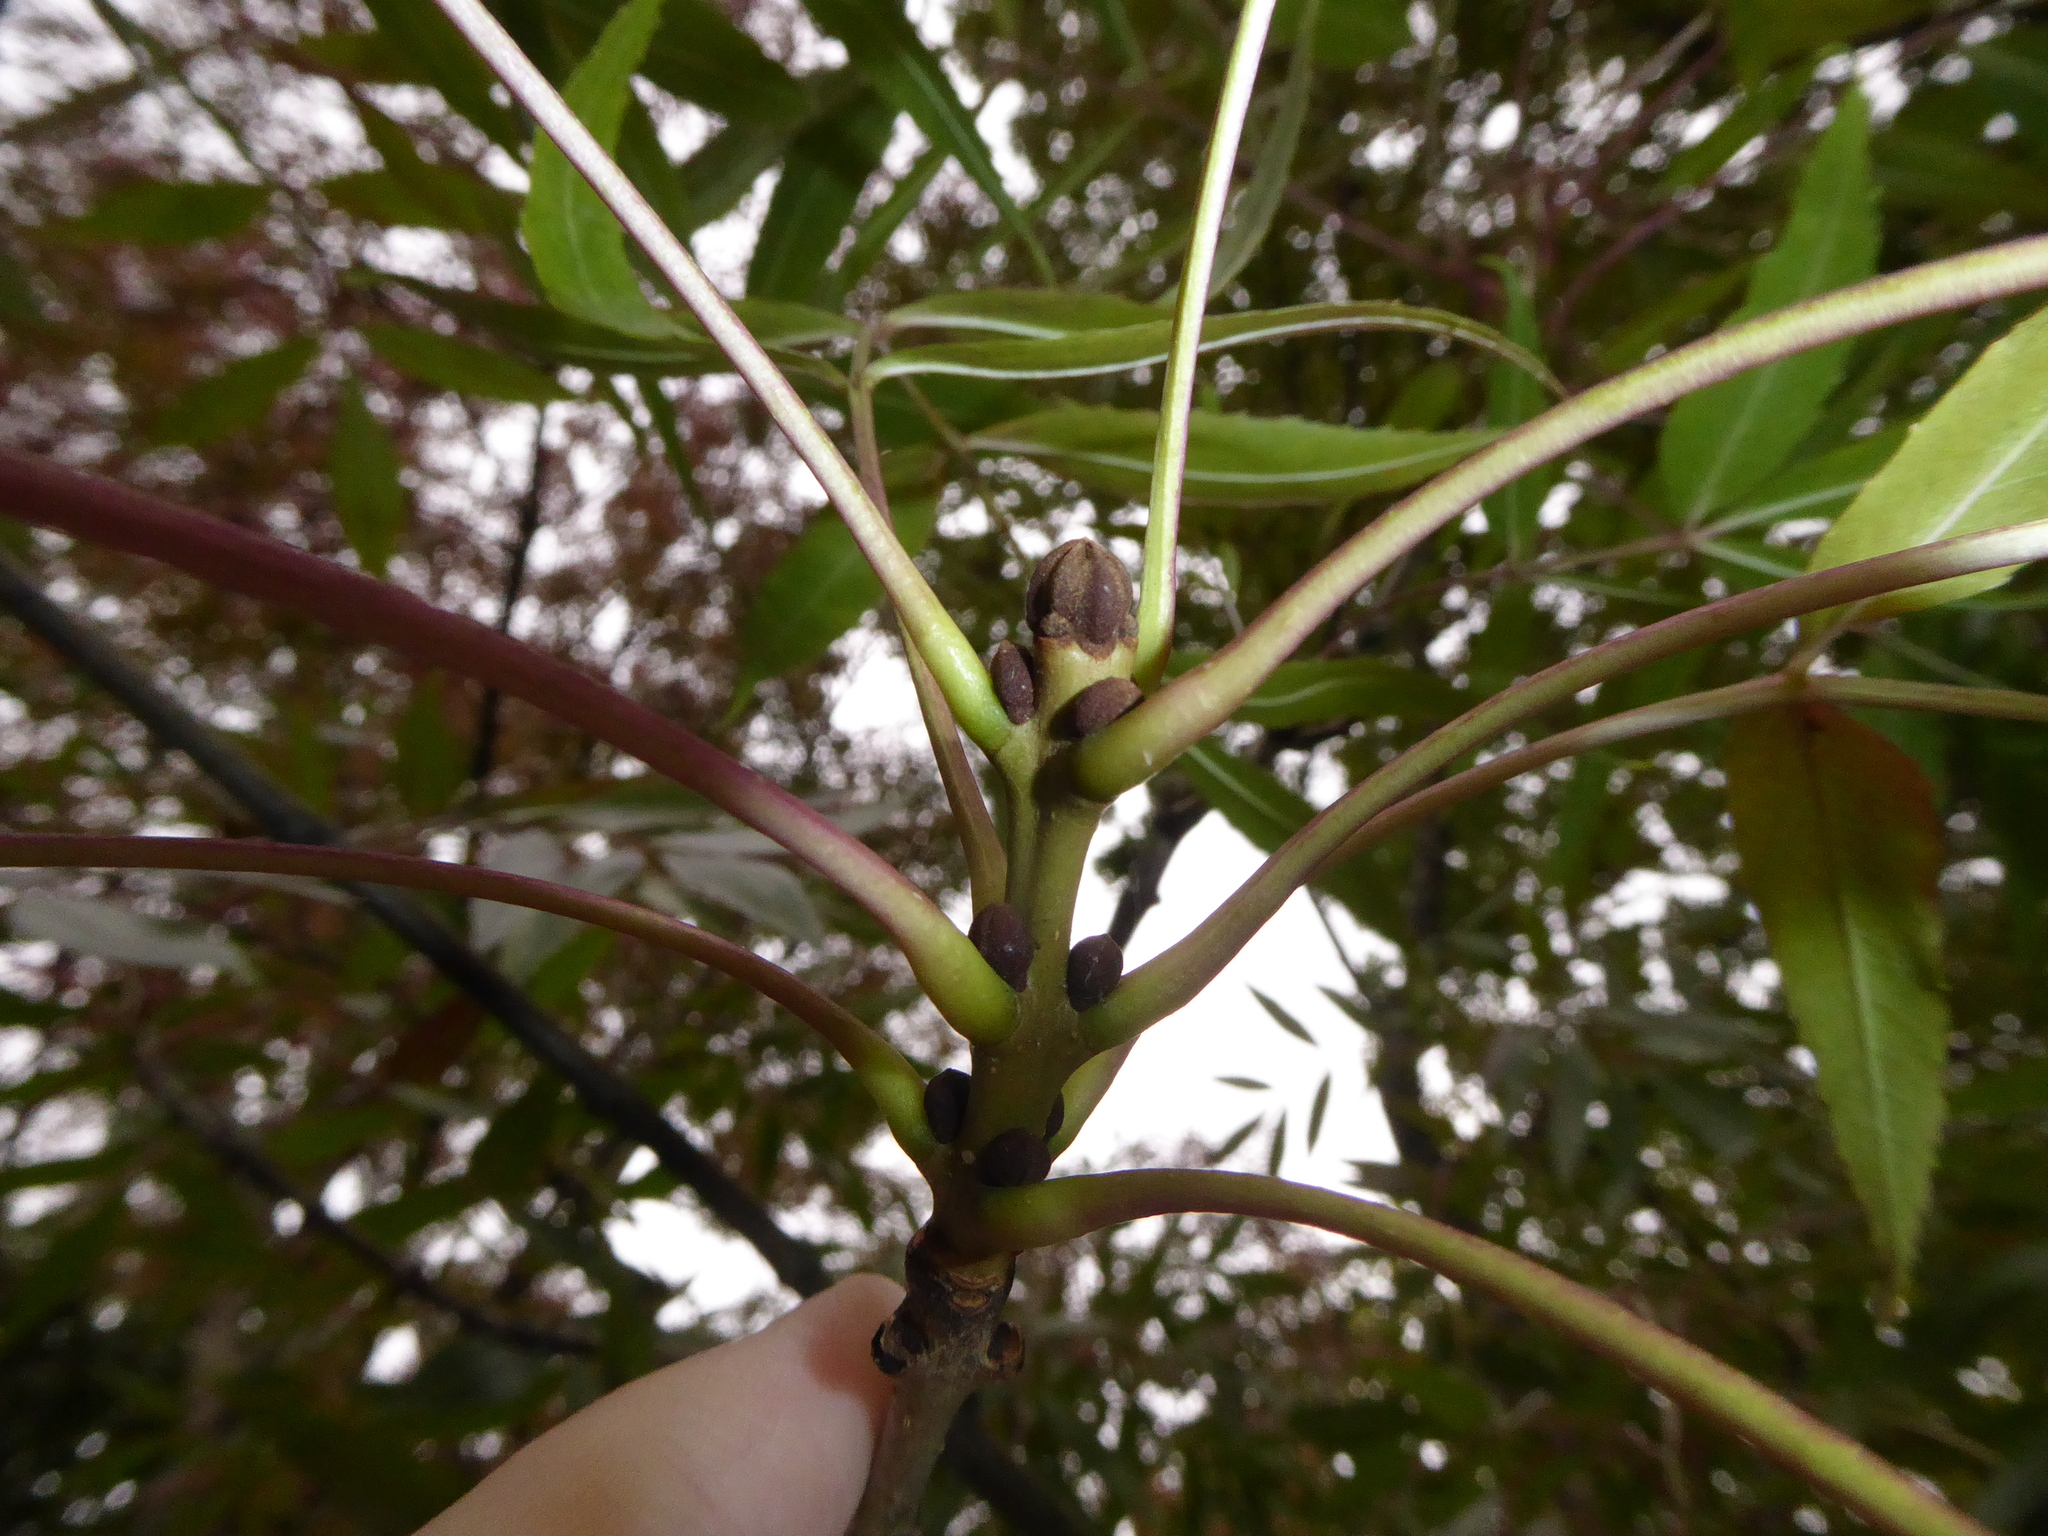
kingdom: Plantae
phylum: Tracheophyta
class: Magnoliopsida
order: Lamiales
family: Oleaceae
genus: Fraxinus
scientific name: Fraxinus angustifolia
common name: Narrow-leafed ash
